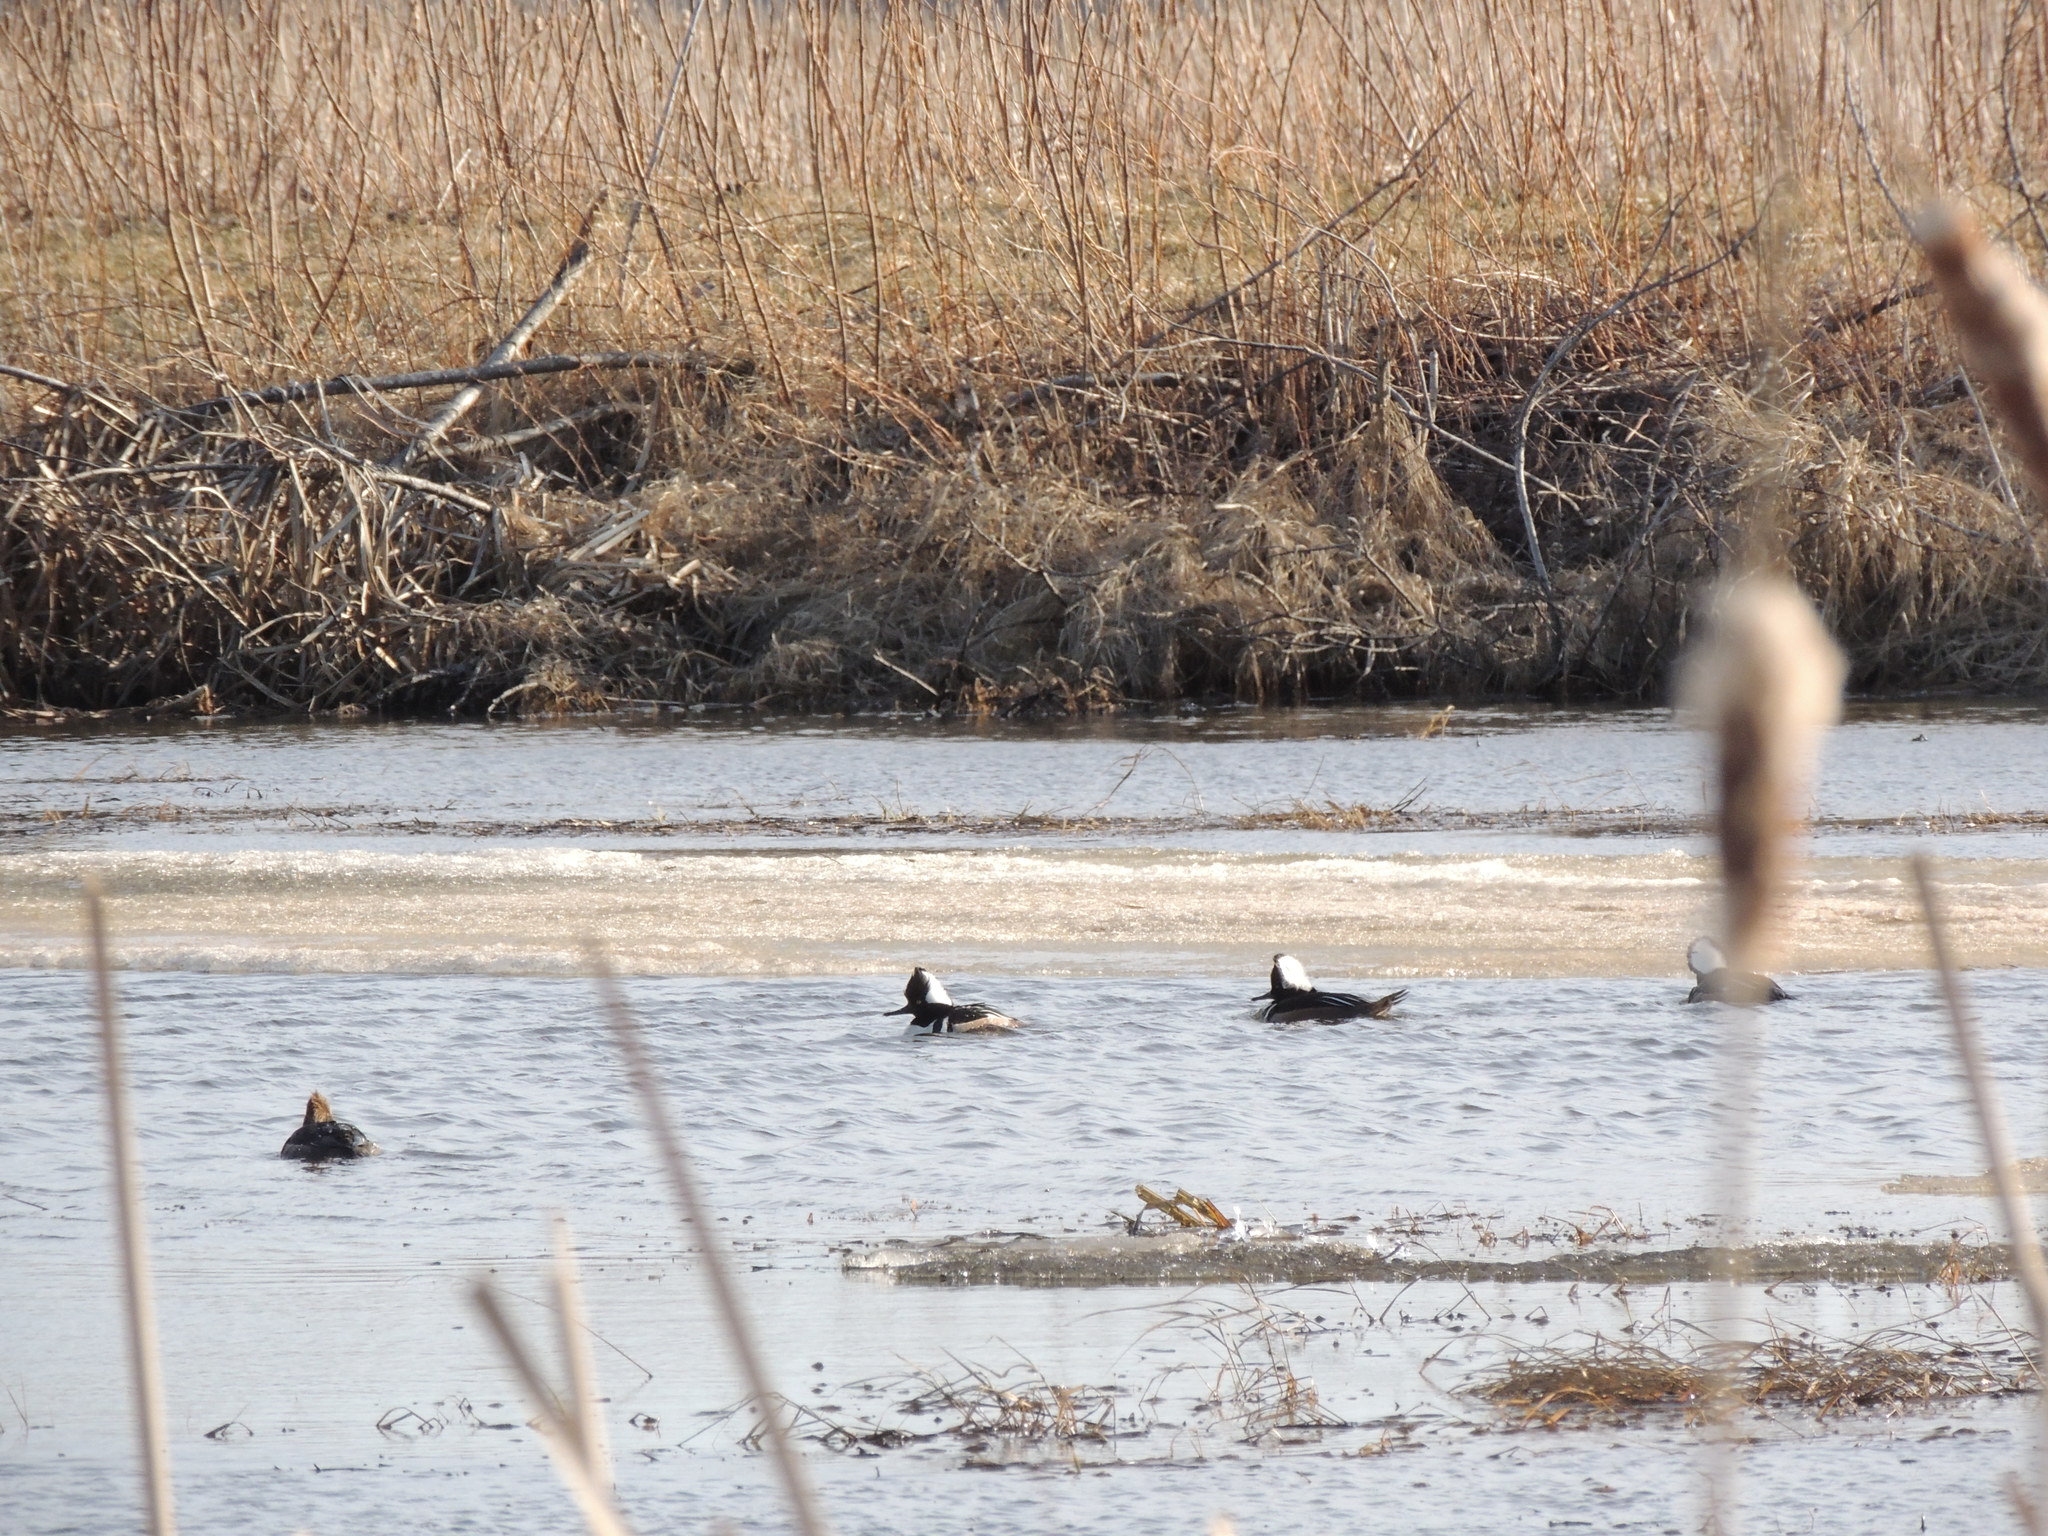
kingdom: Animalia
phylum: Chordata
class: Aves
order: Anseriformes
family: Anatidae
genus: Lophodytes
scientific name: Lophodytes cucullatus
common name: Hooded merganser
